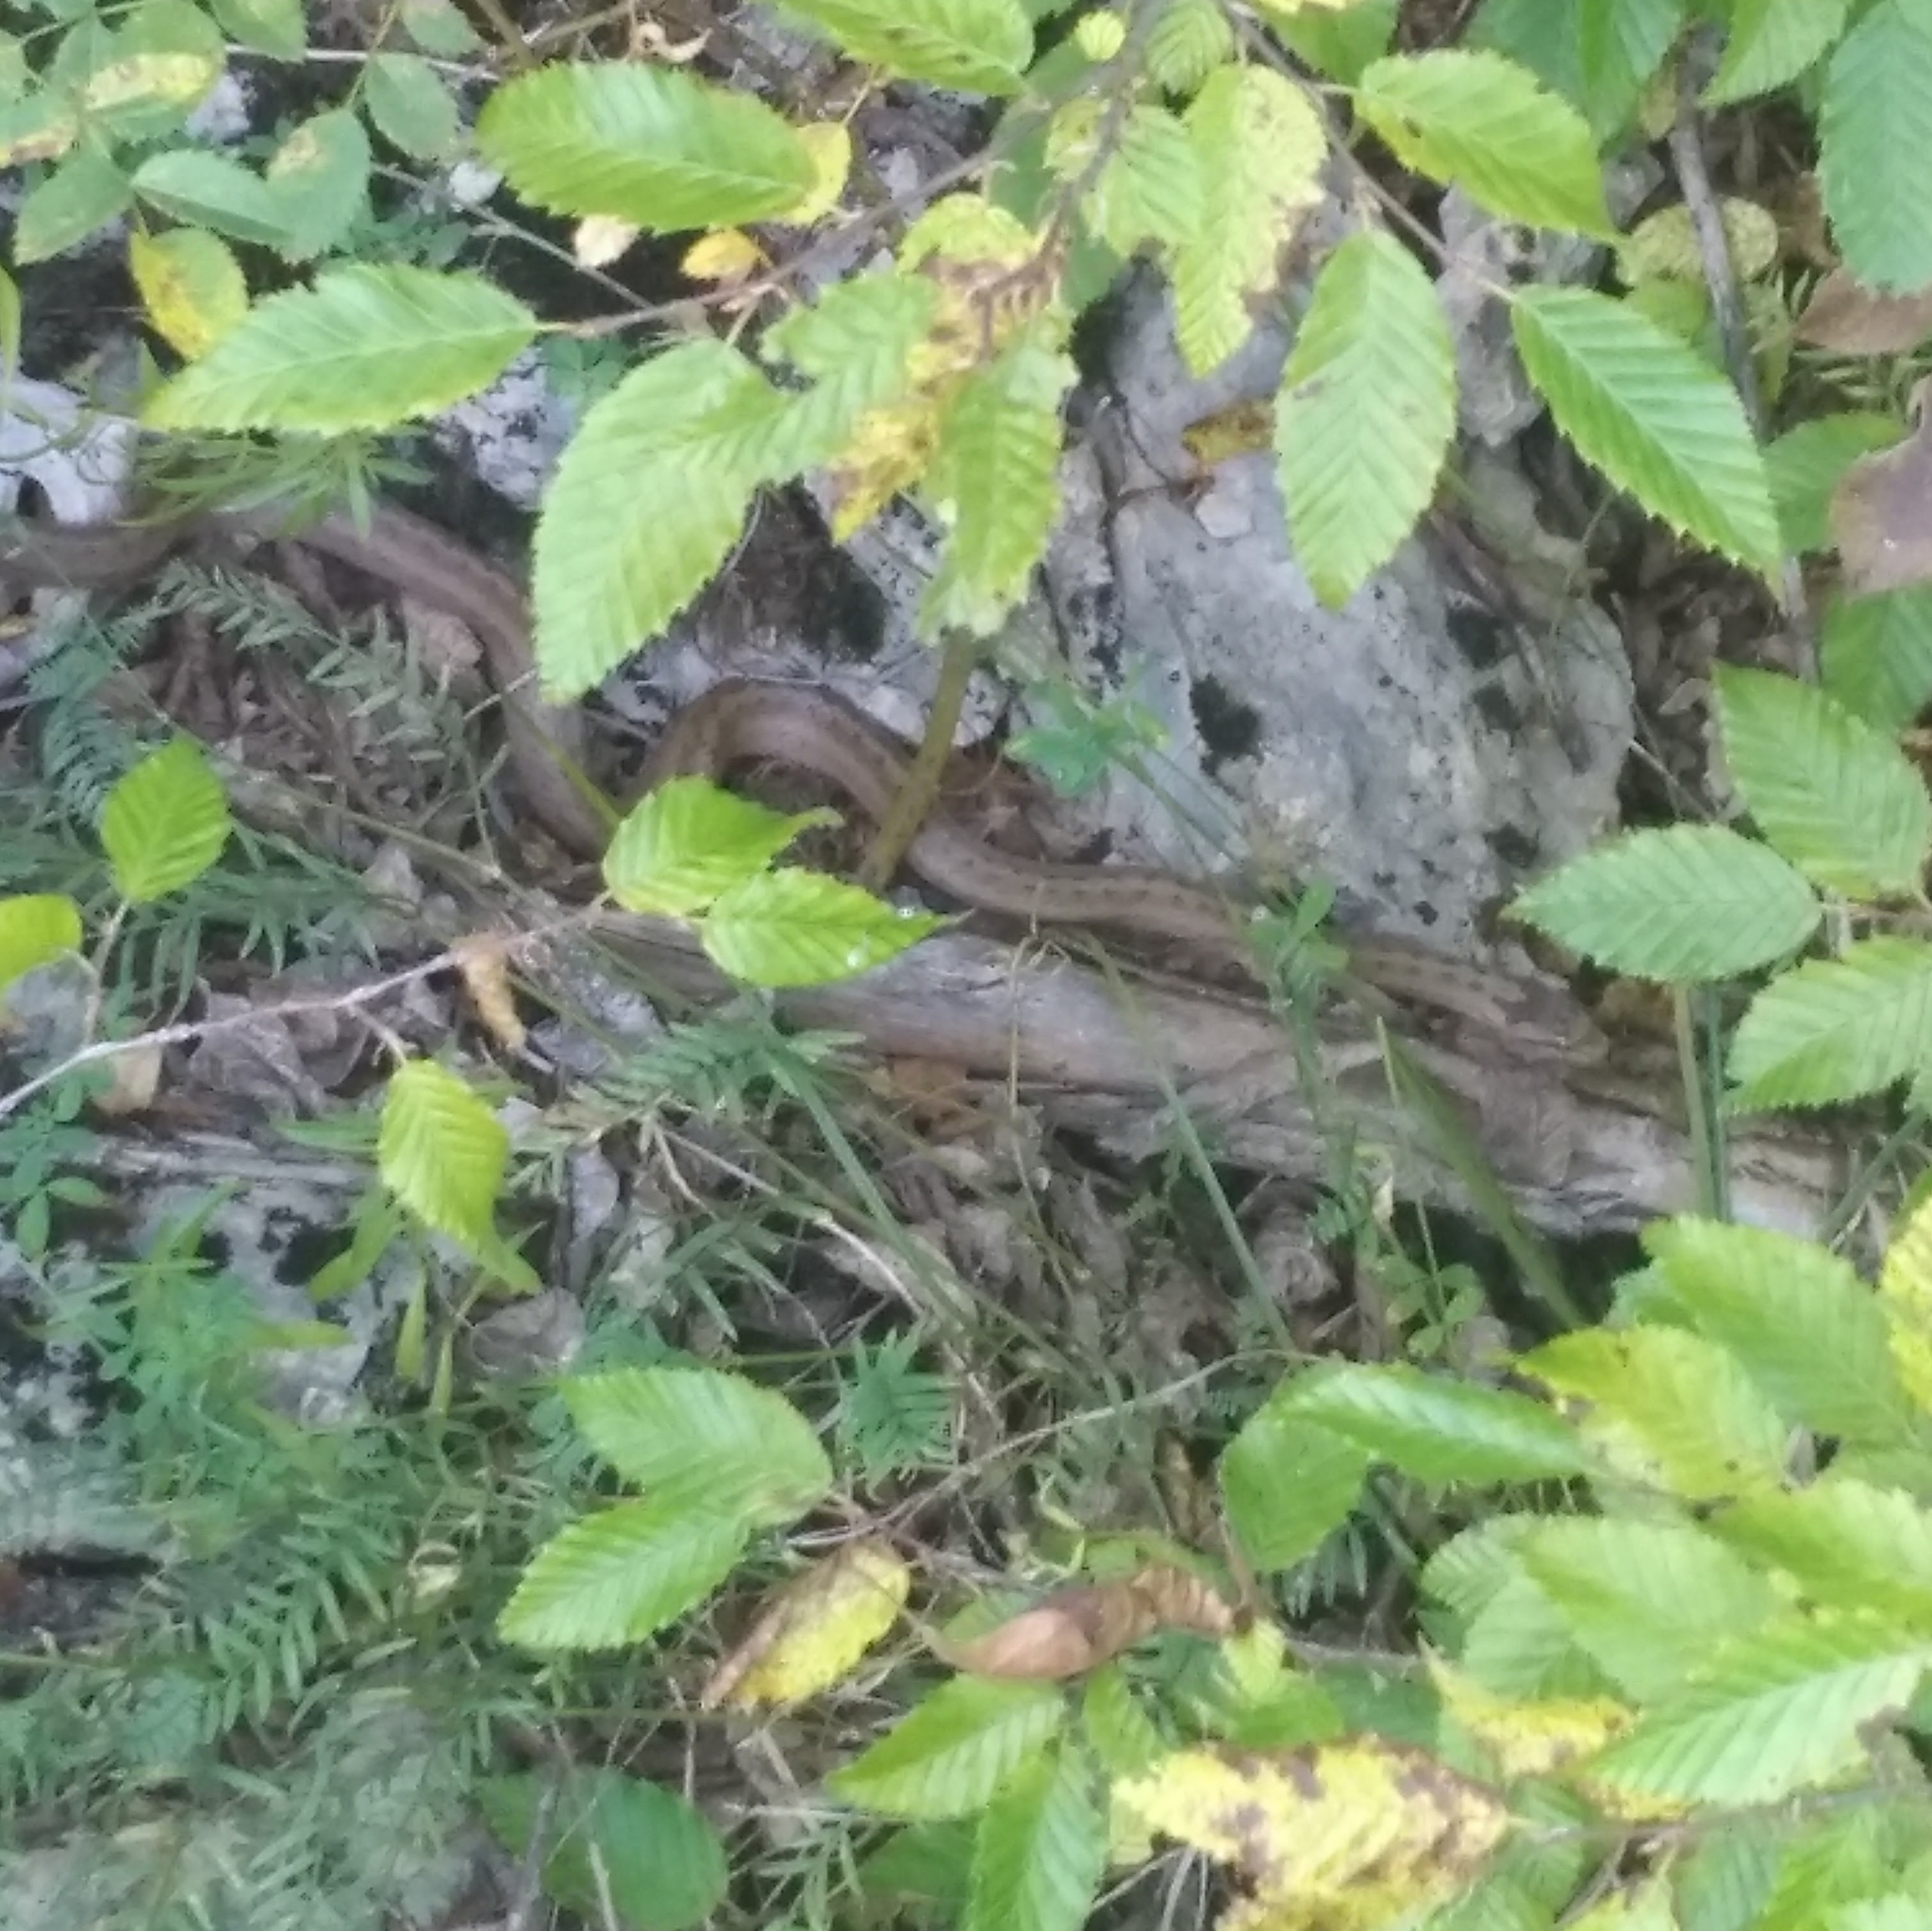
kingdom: Animalia
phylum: Chordata
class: Squamata
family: Colubridae
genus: Coronella
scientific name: Coronella austriaca
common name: Smooth snake
